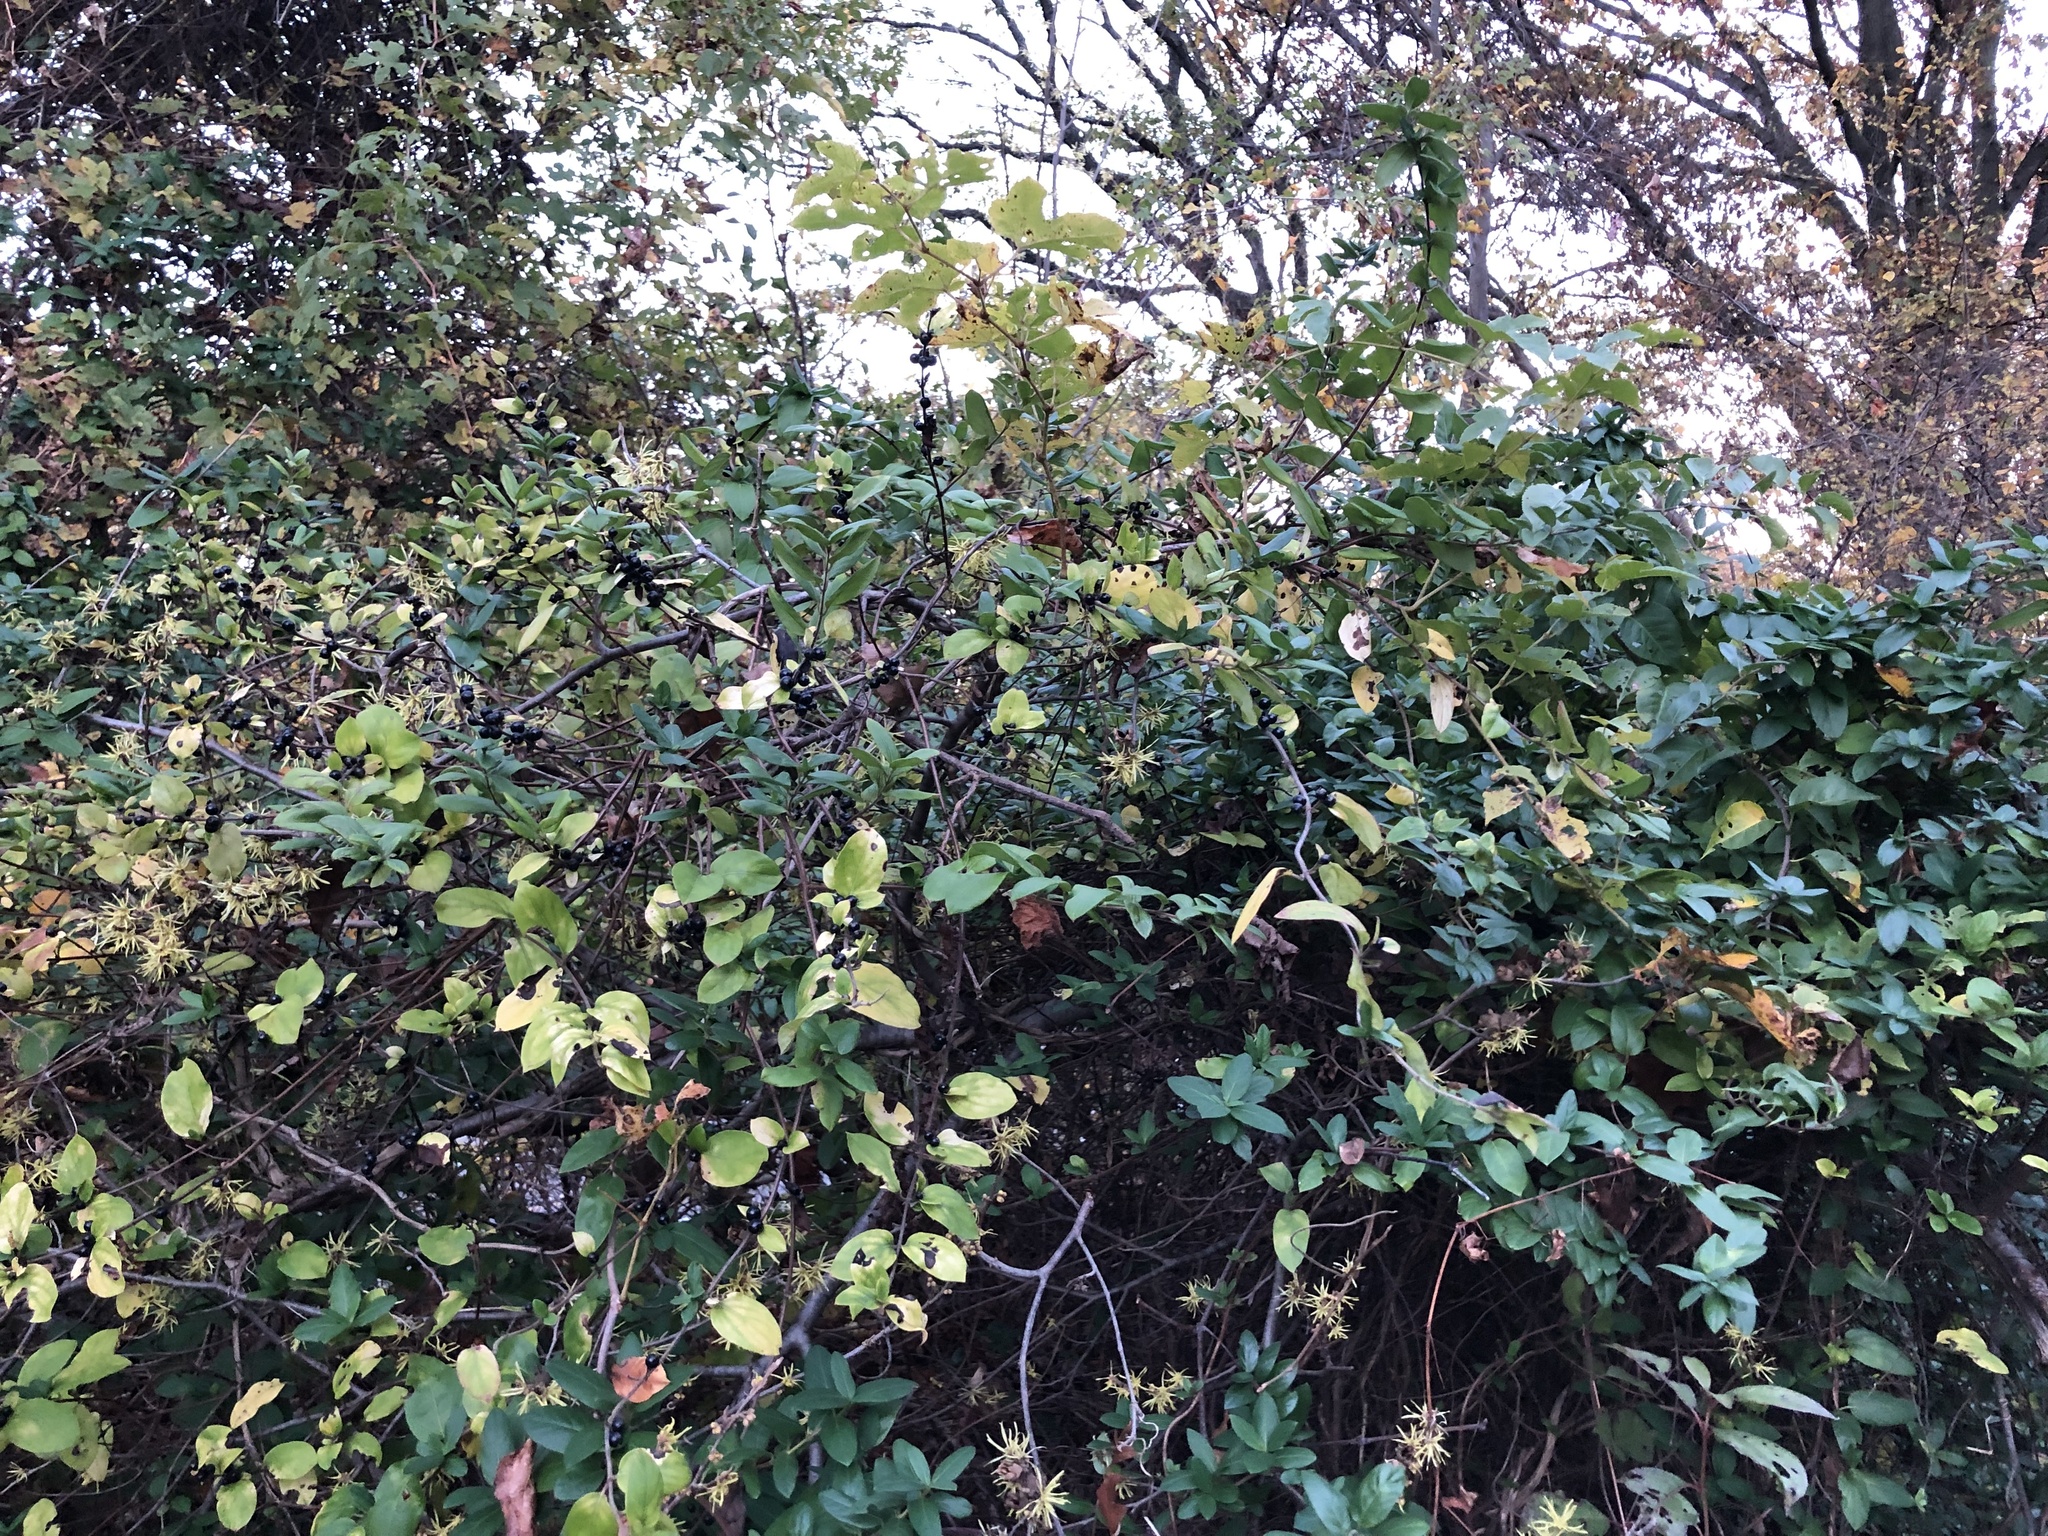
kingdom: Plantae
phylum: Tracheophyta
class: Magnoliopsida
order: Dipsacales
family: Caprifoliaceae
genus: Lonicera
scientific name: Lonicera japonica
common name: Japanese honeysuckle
